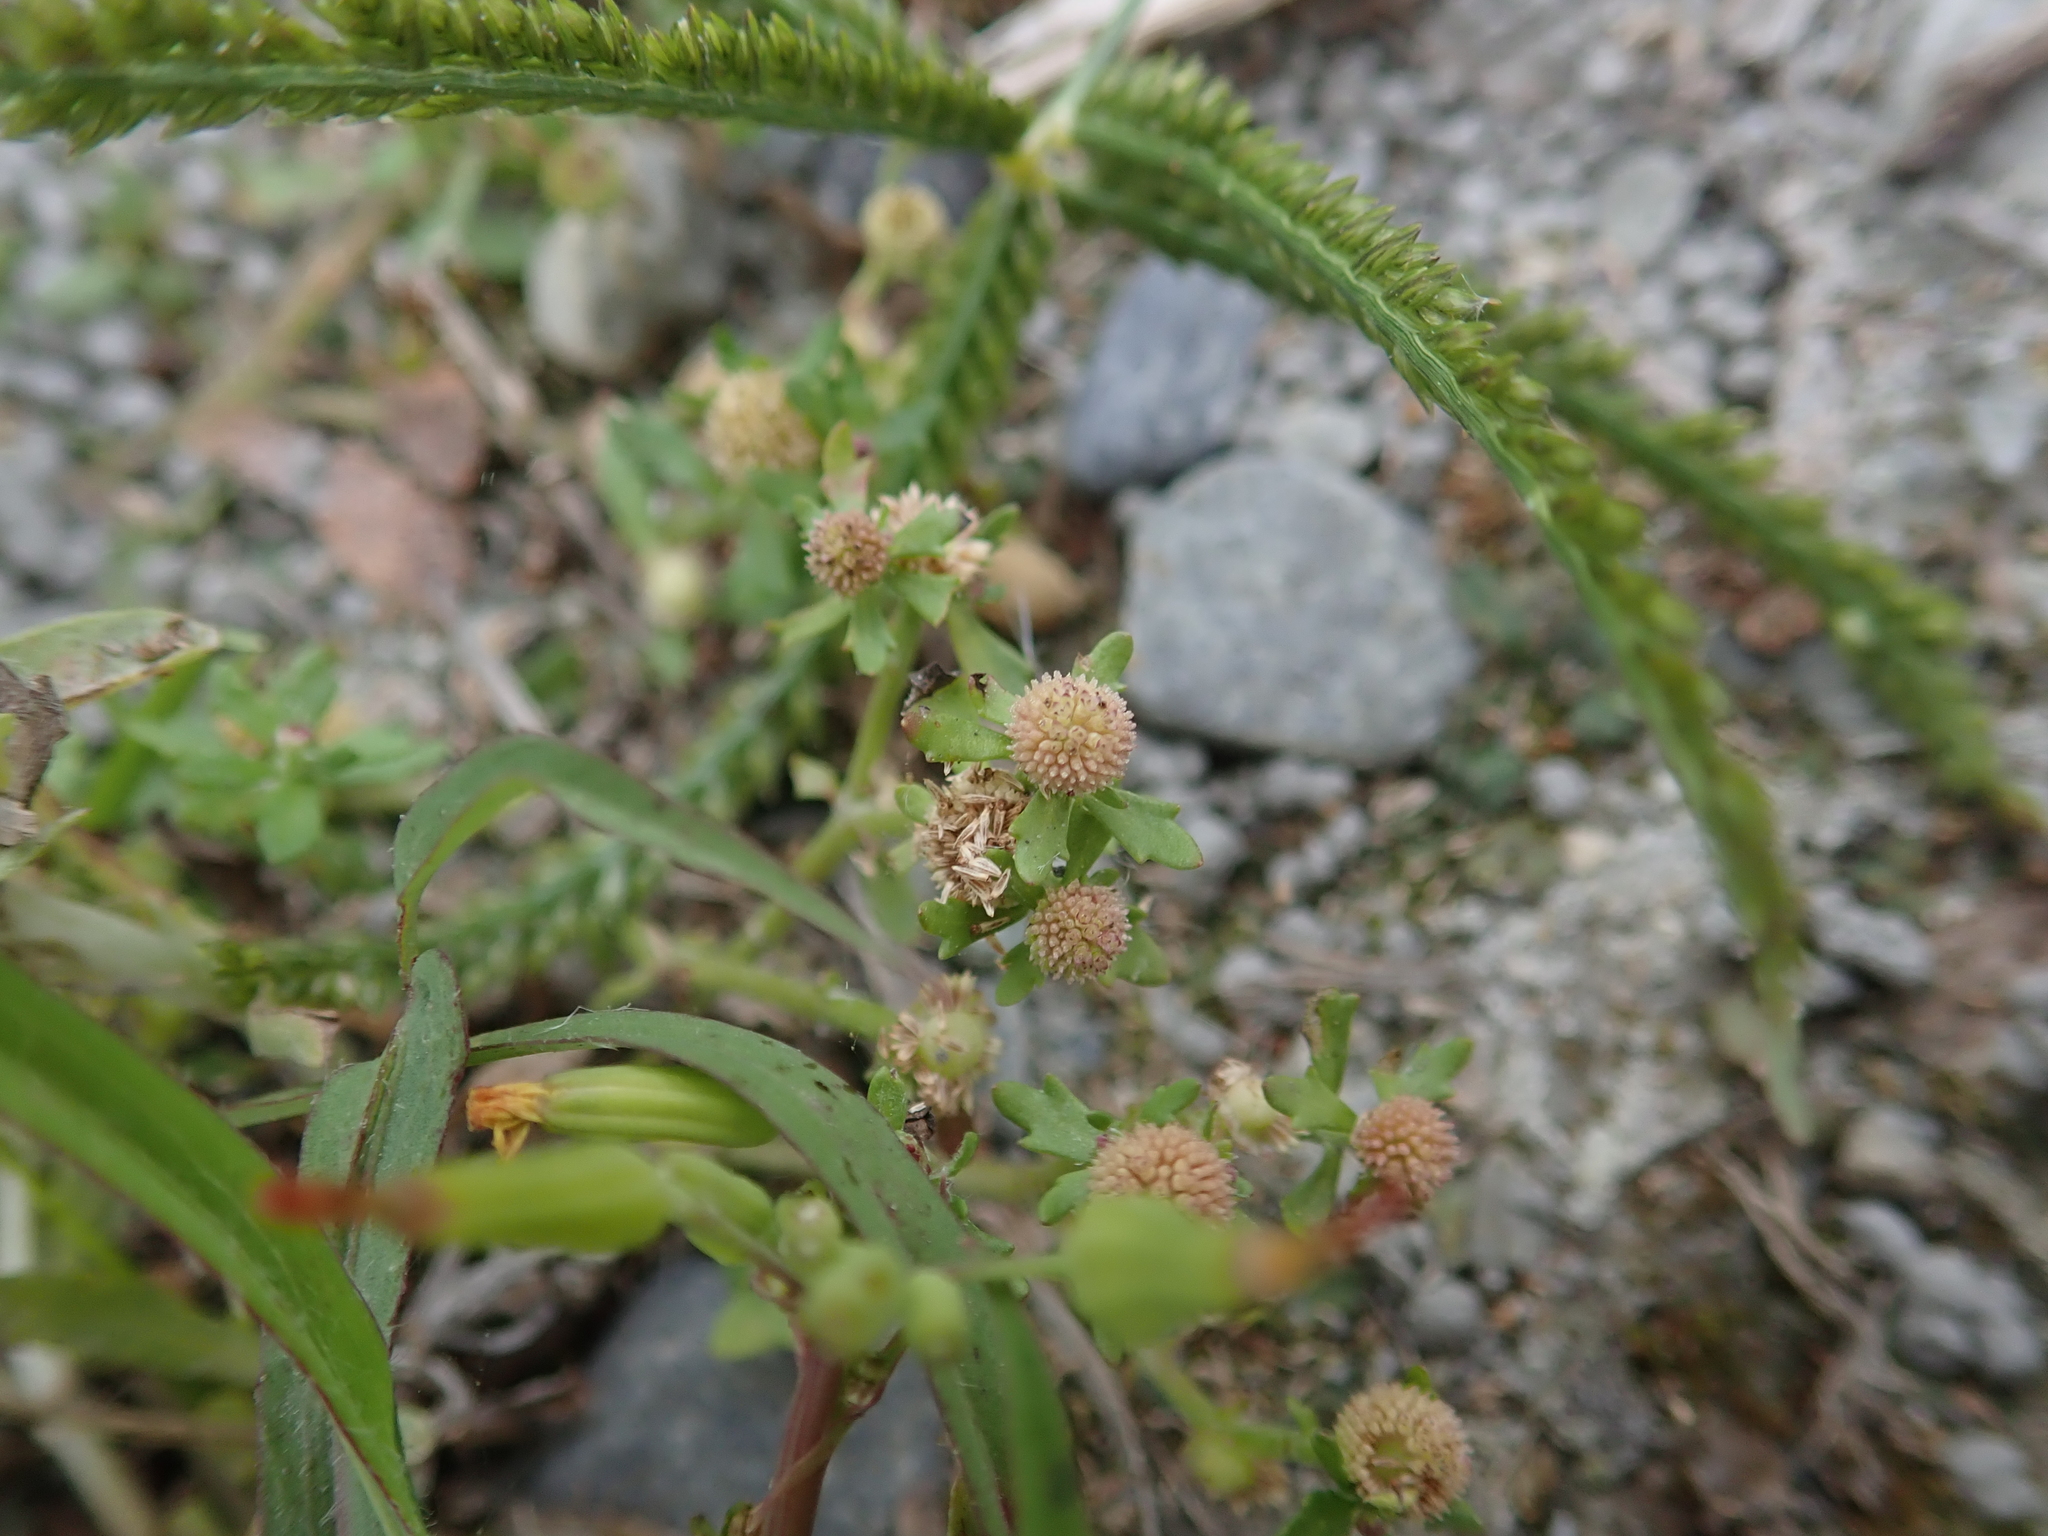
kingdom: Plantae
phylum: Tracheophyta
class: Magnoliopsida
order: Asterales
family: Asteraceae
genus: Centipeda
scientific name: Centipeda minima
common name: Spreading sneezeweed
